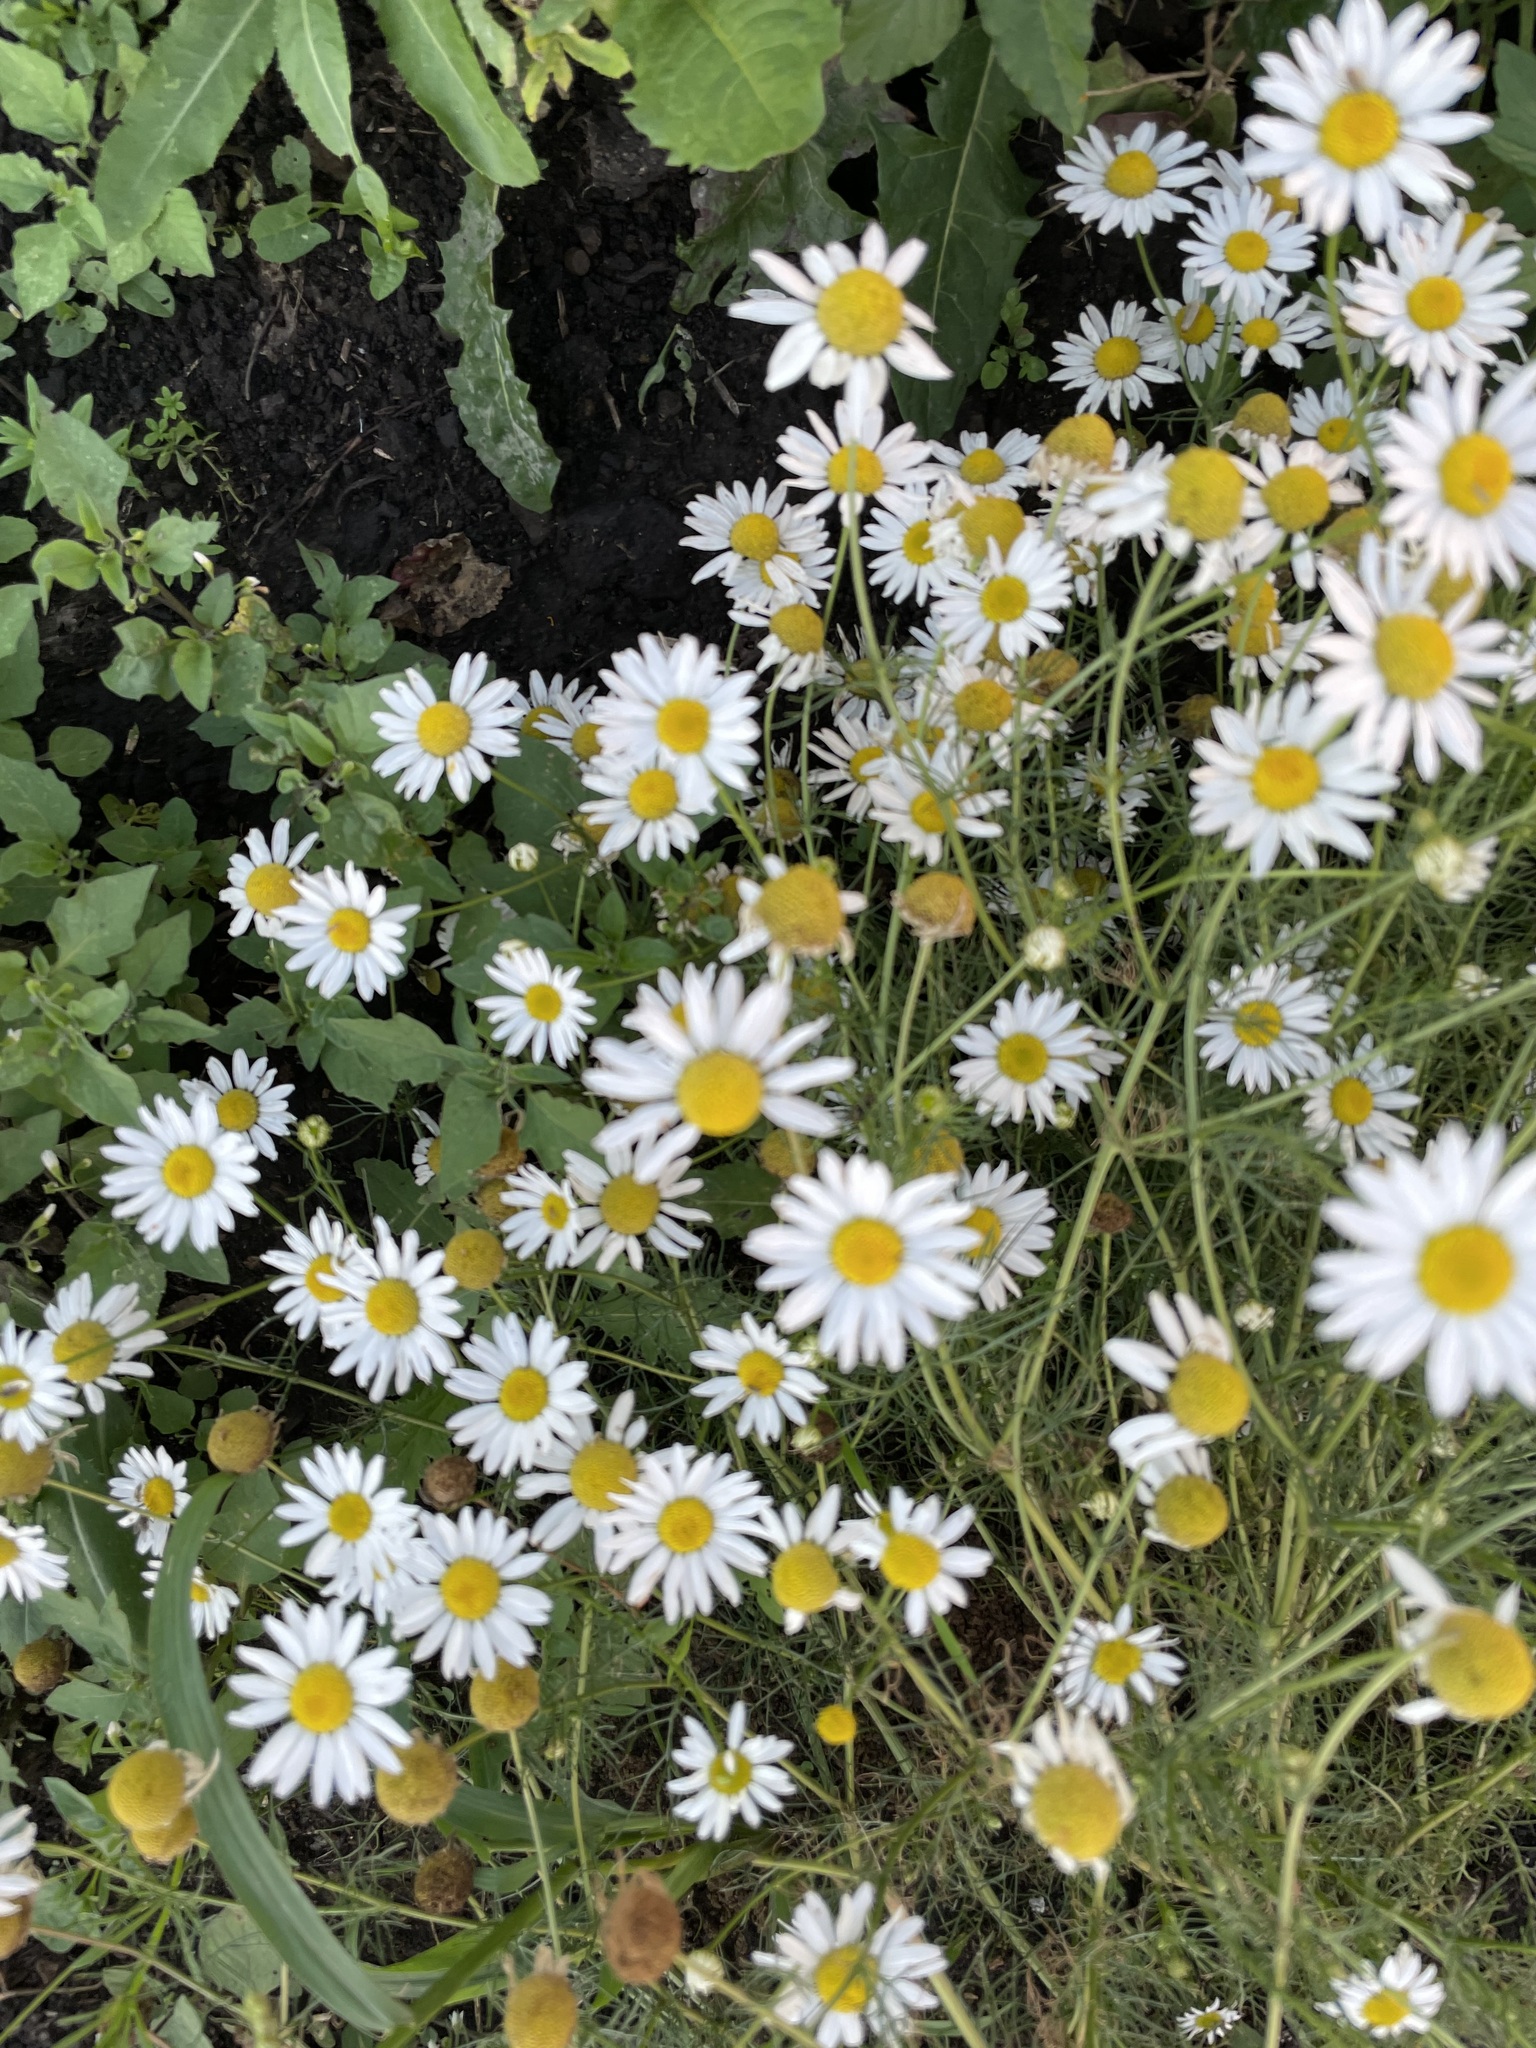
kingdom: Plantae
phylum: Tracheophyta
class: Magnoliopsida
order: Asterales
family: Asteraceae
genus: Tripleurospermum
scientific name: Tripleurospermum inodorum
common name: Scentless mayweed
